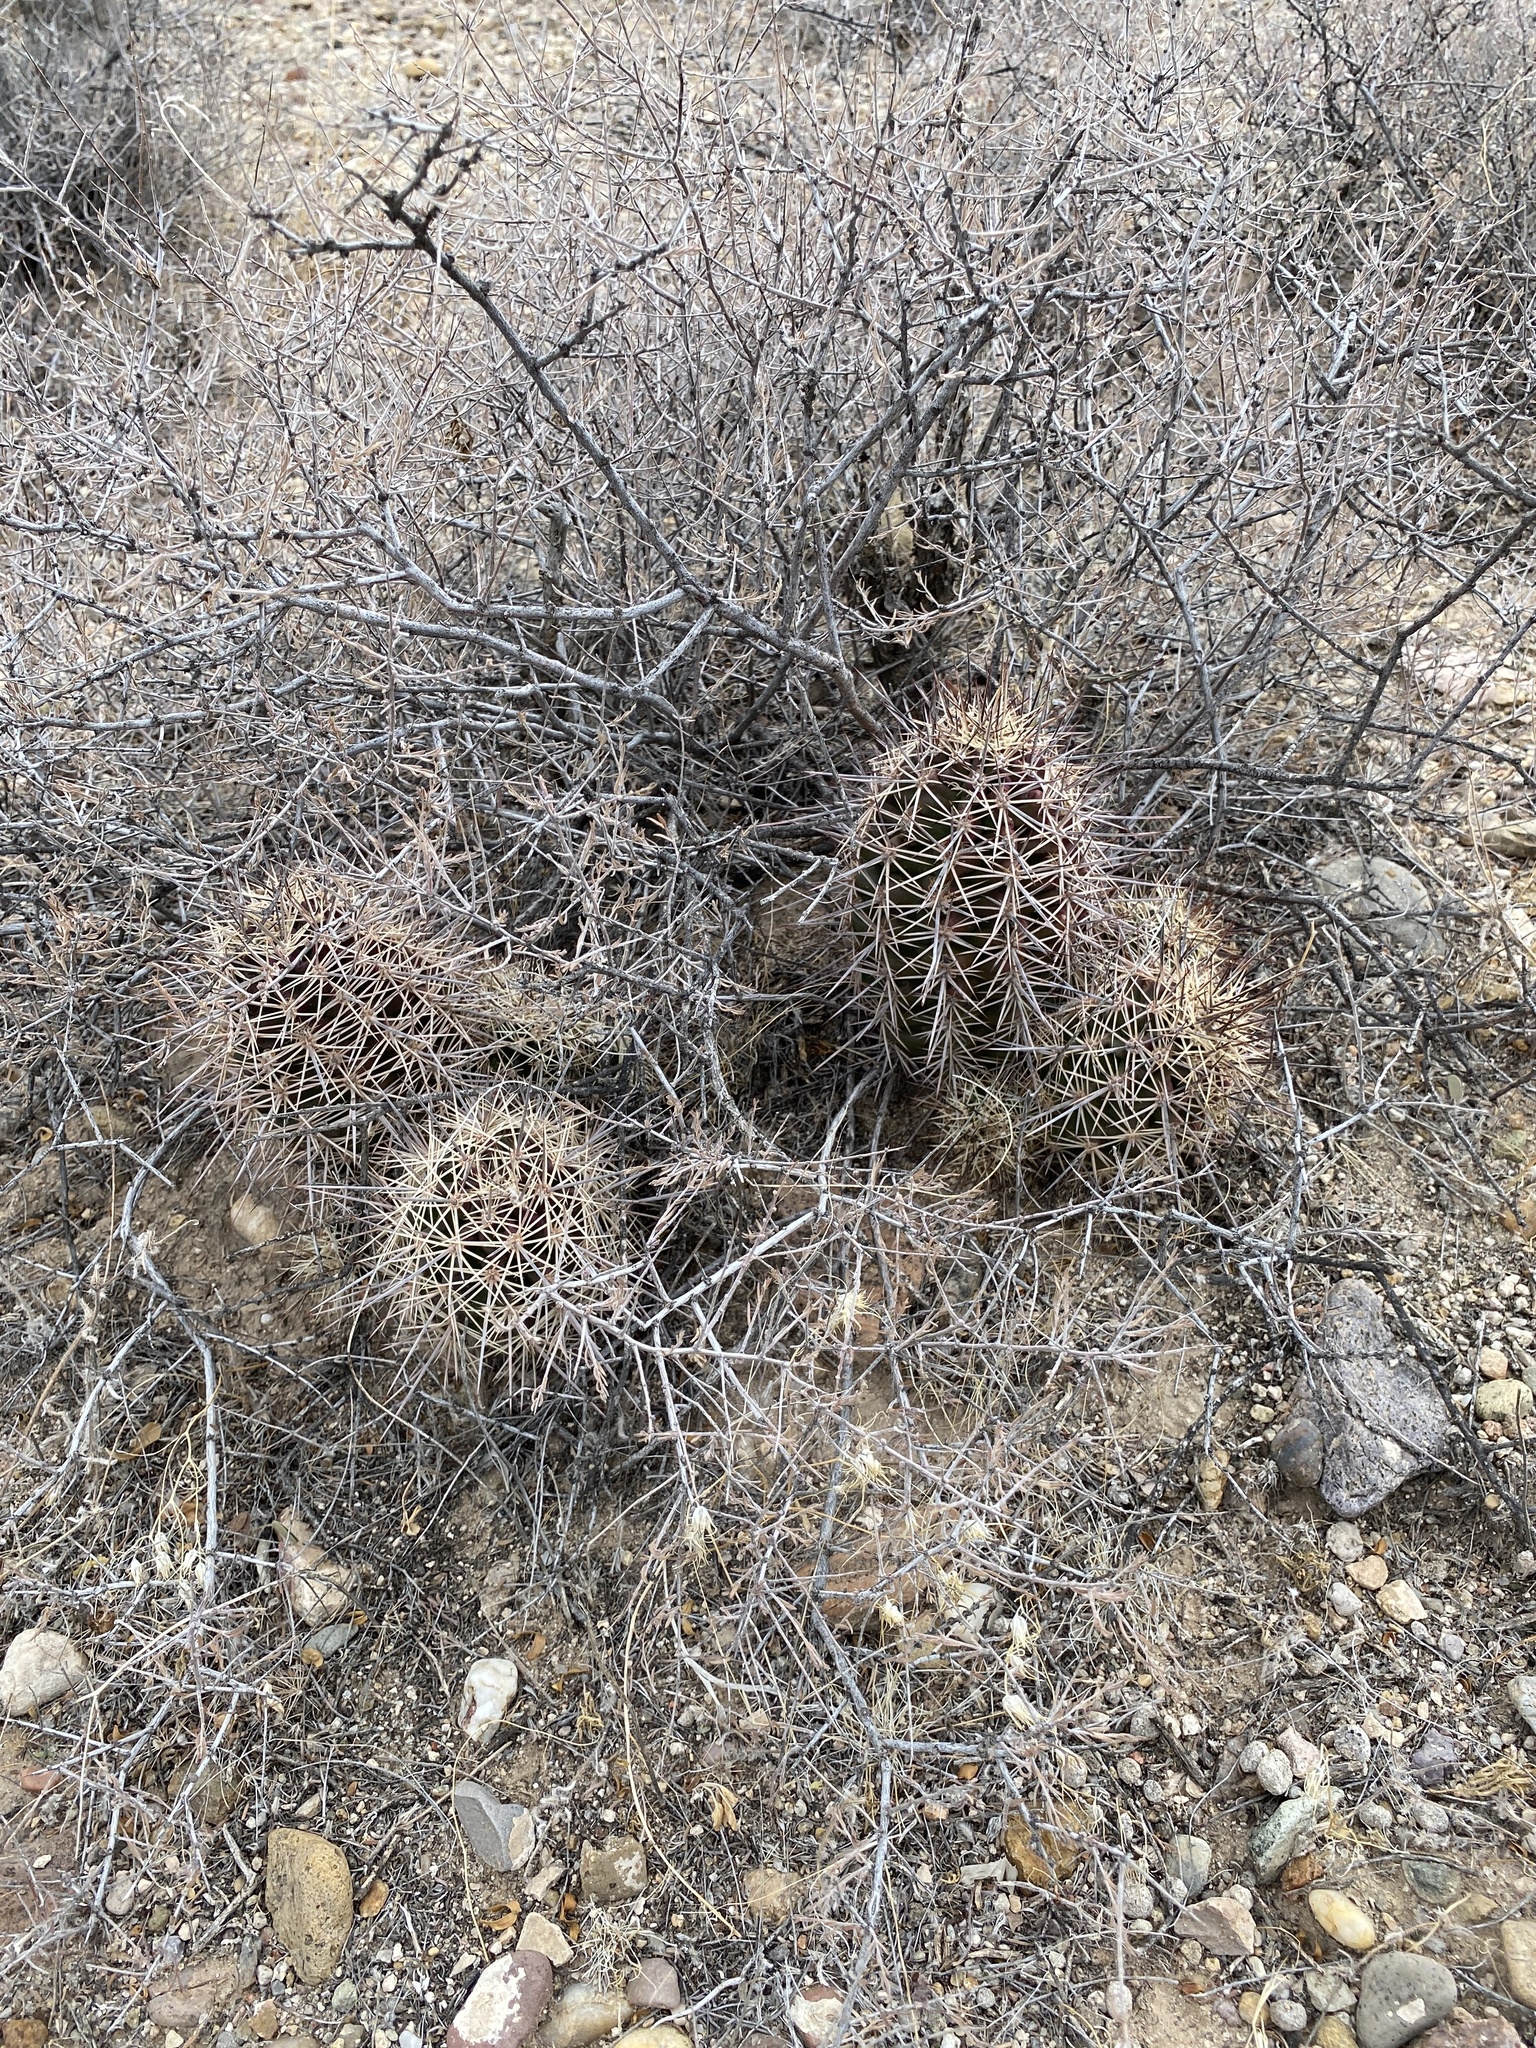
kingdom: Plantae
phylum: Tracheophyta
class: Magnoliopsida
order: Caryophyllales
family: Cactaceae
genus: Echinocereus
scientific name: Echinocereus coccineus
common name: Scarlet hedgehog cactus
